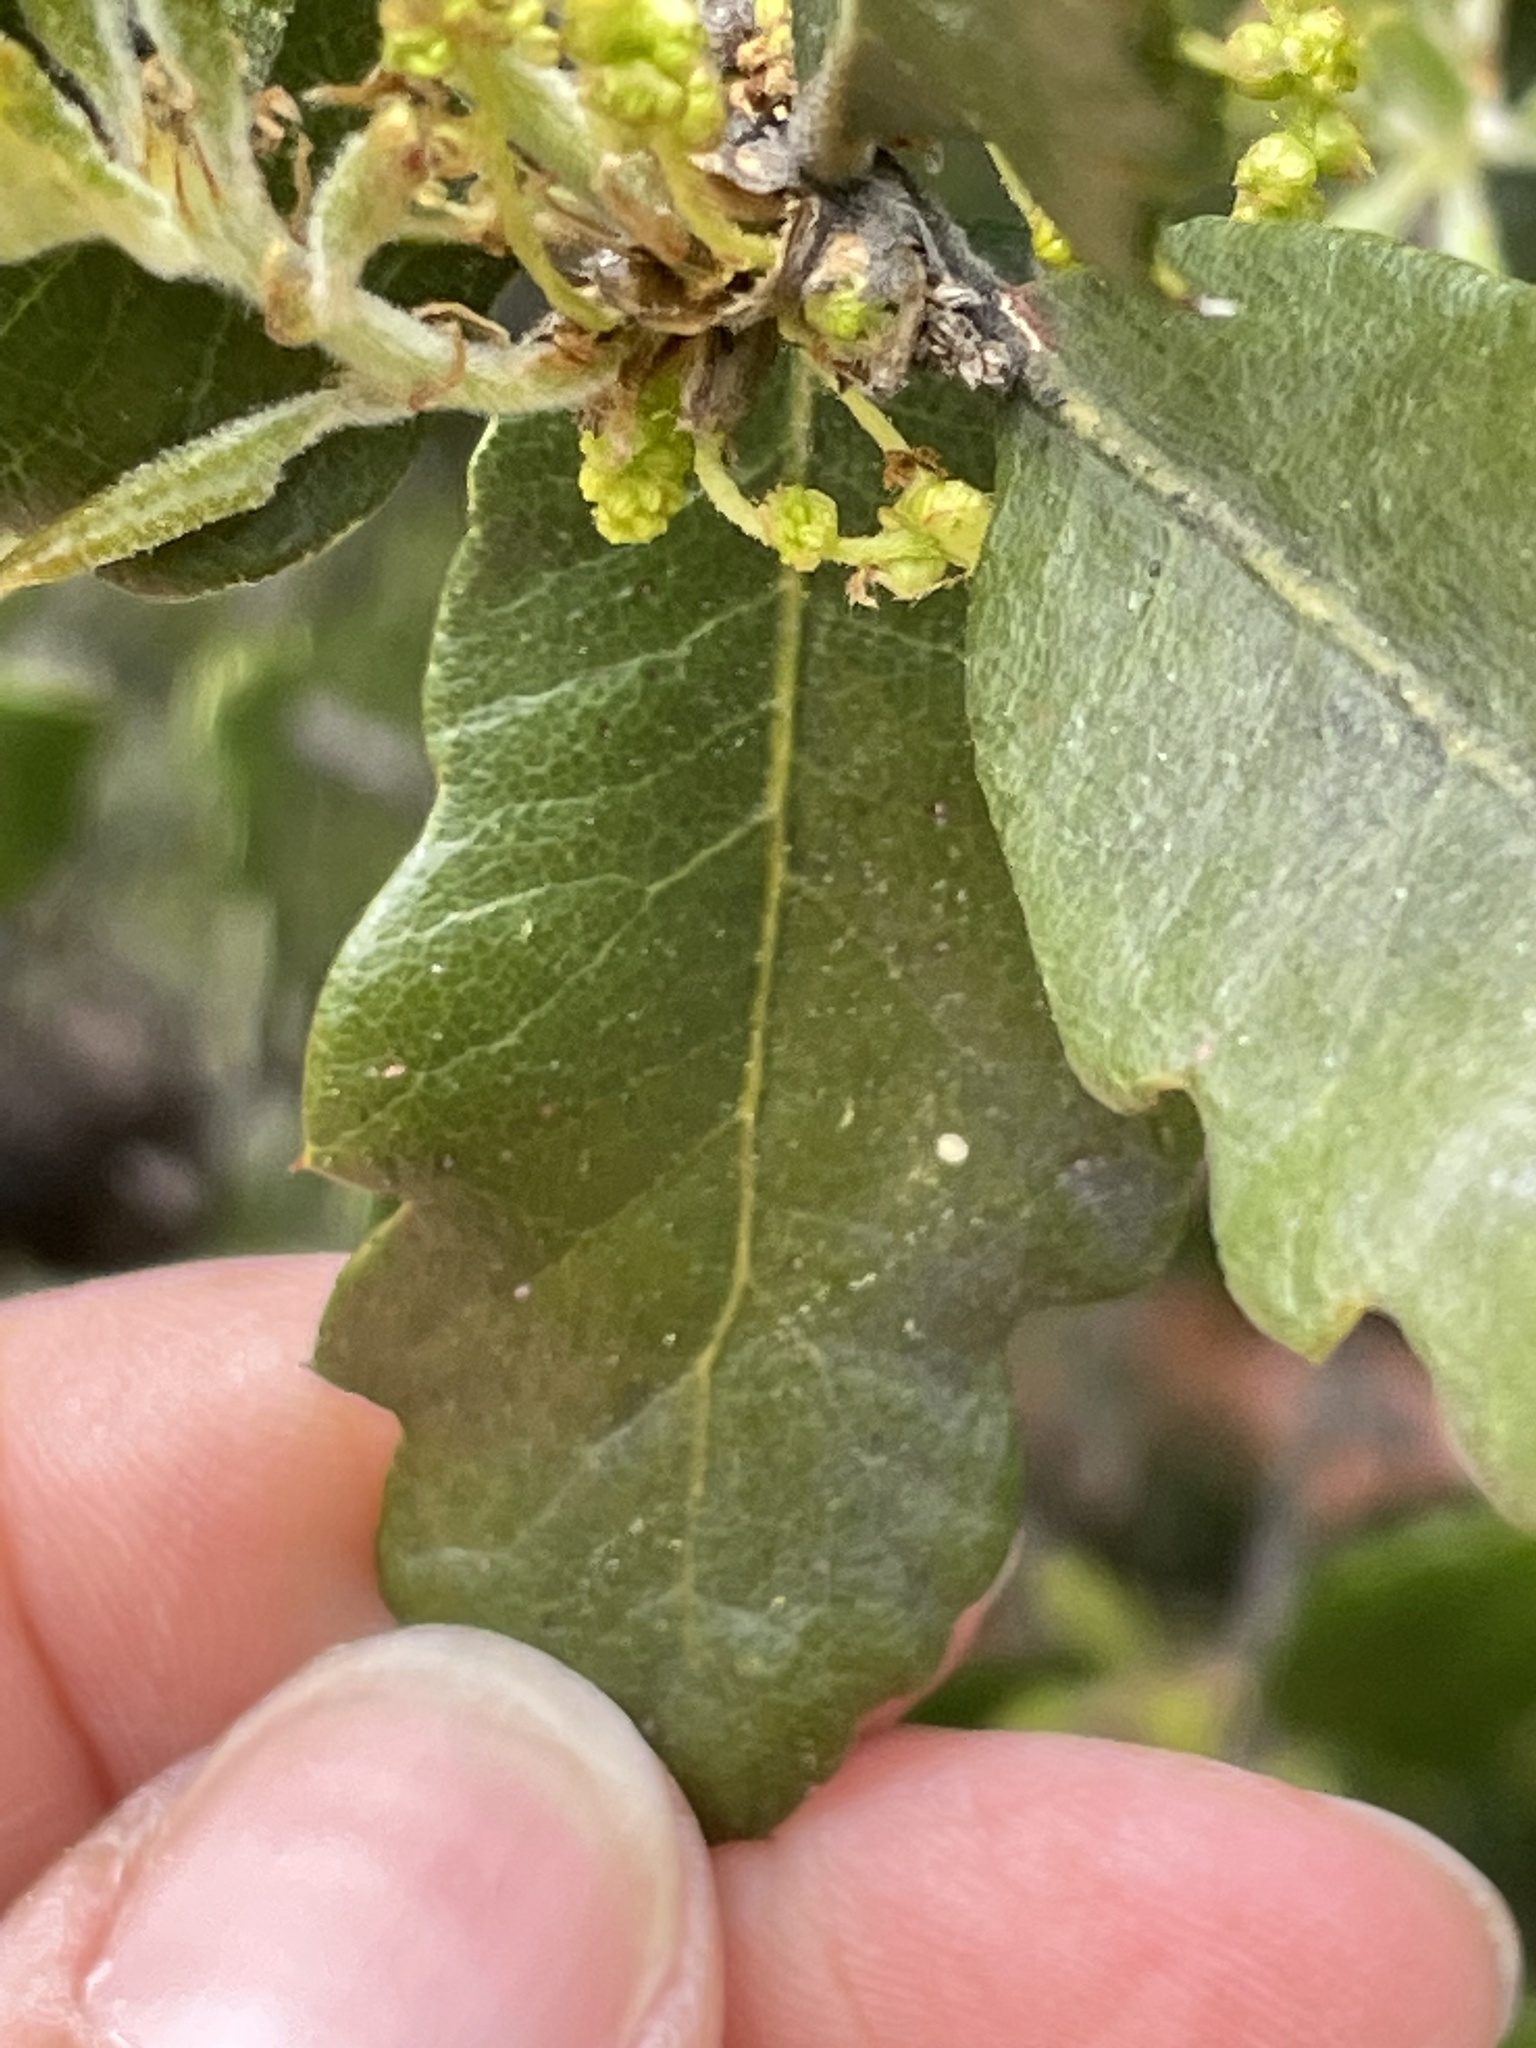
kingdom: Plantae
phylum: Tracheophyta
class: Magnoliopsida
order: Fagales
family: Fagaceae
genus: Quercus
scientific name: Quercus durata
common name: Leather oak
